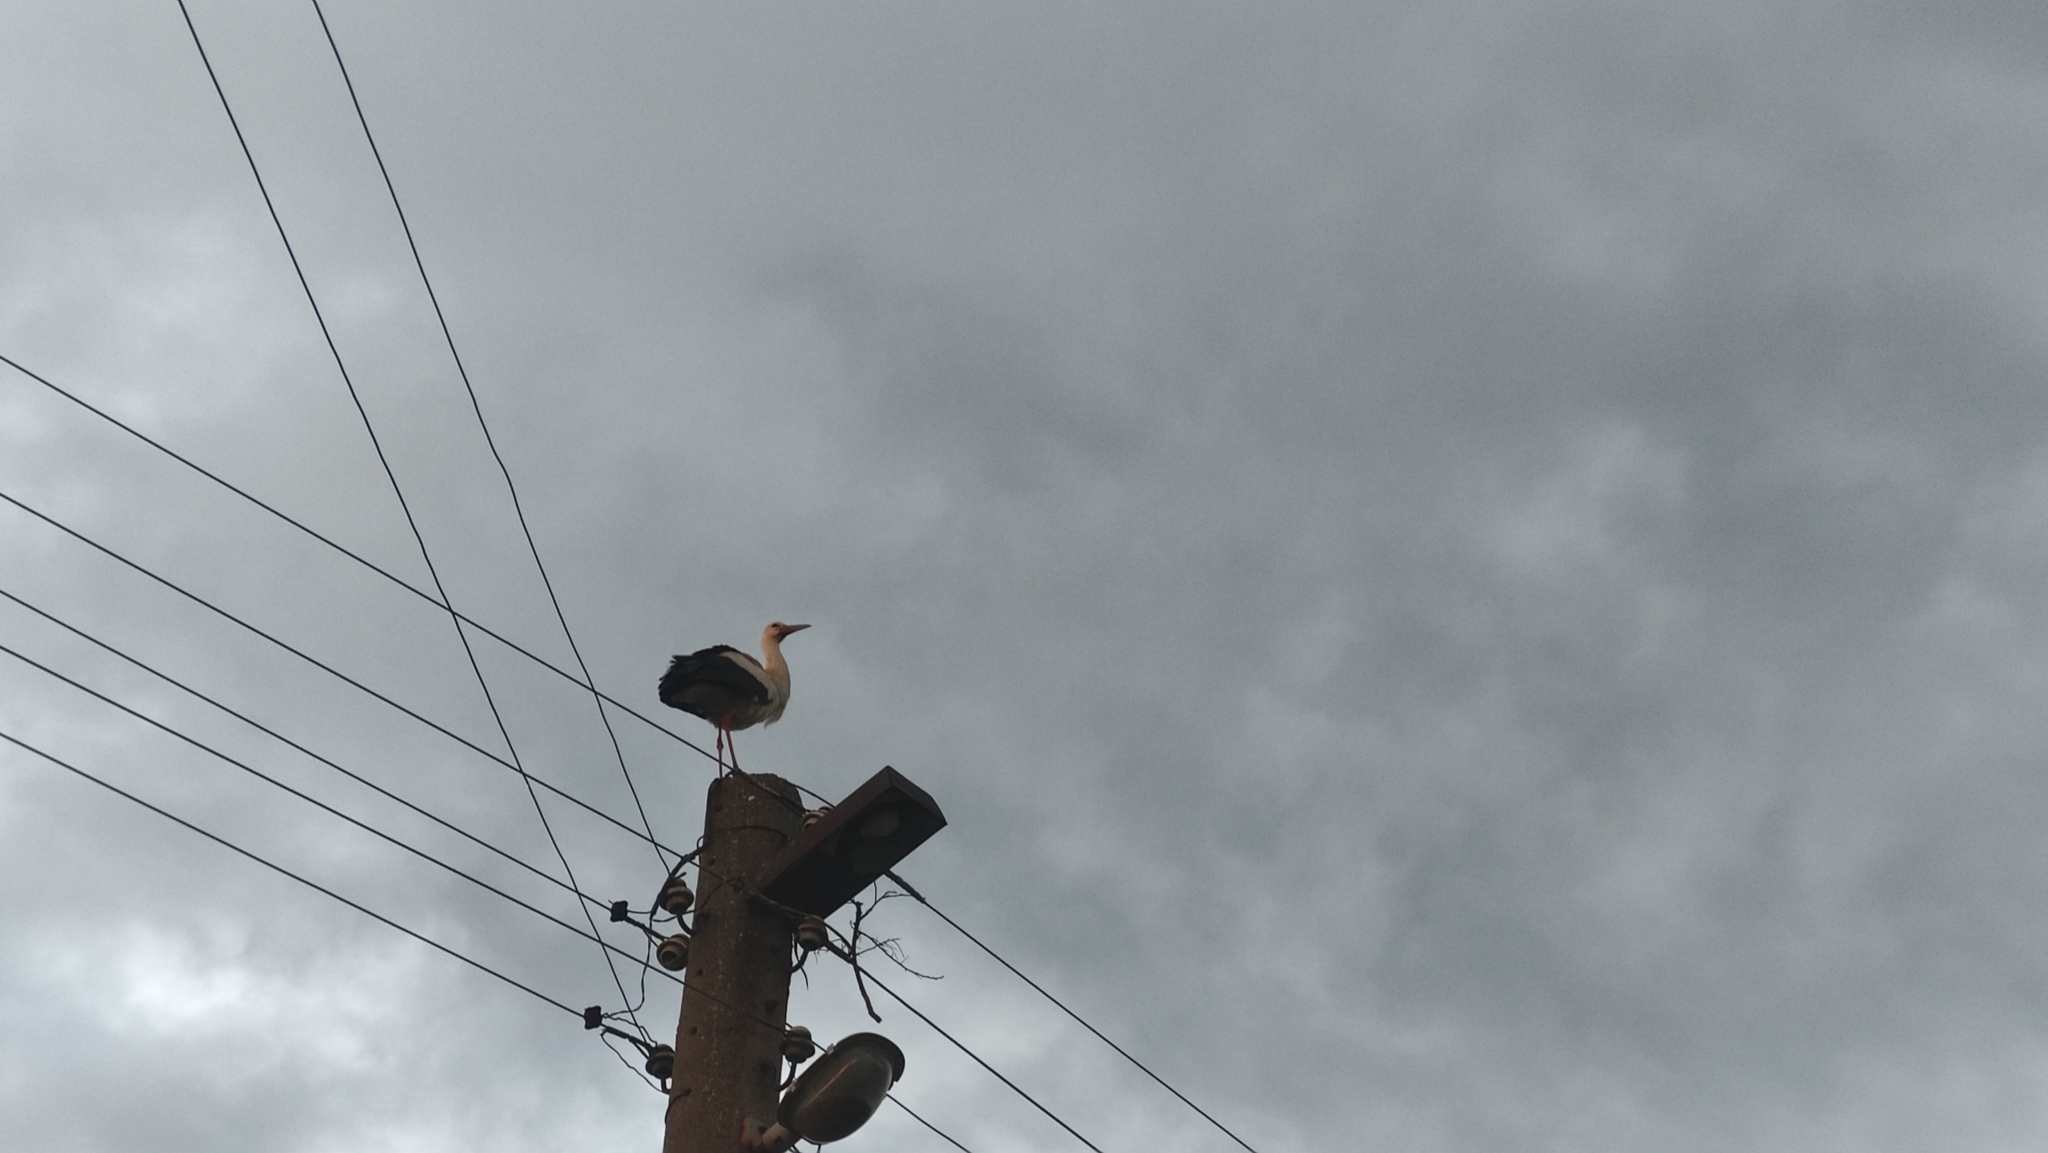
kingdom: Animalia
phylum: Chordata
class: Aves
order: Ciconiiformes
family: Ciconiidae
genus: Ciconia
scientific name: Ciconia ciconia
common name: White stork
